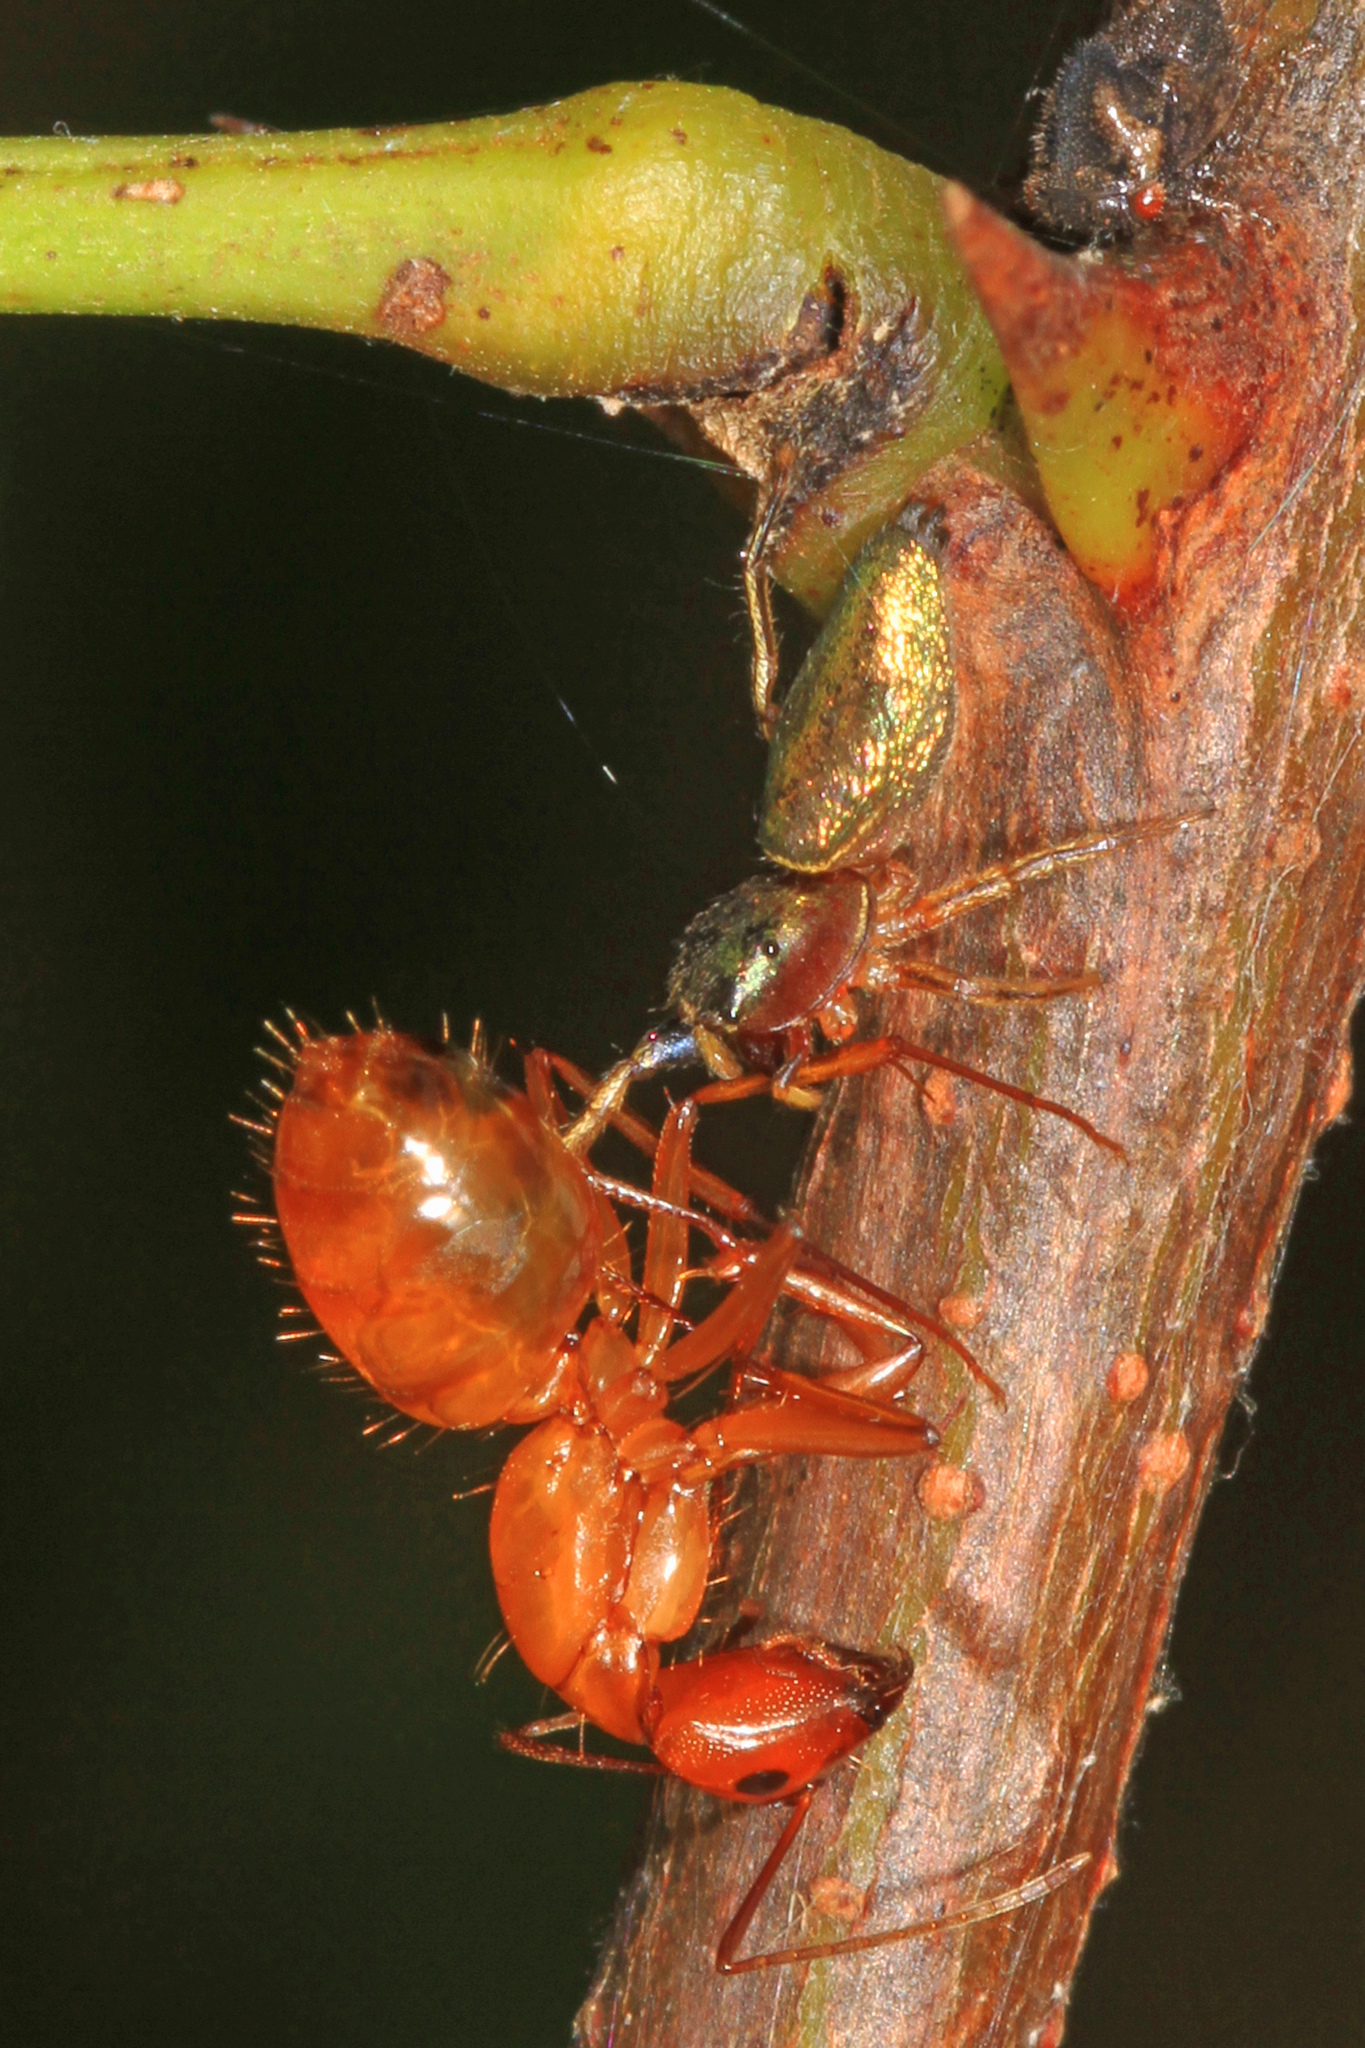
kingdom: Animalia
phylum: Arthropoda
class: Arachnida
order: Araneae
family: Salticidae
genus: Tutelina
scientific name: Tutelina elegans
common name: Thin-spined jumping spider
